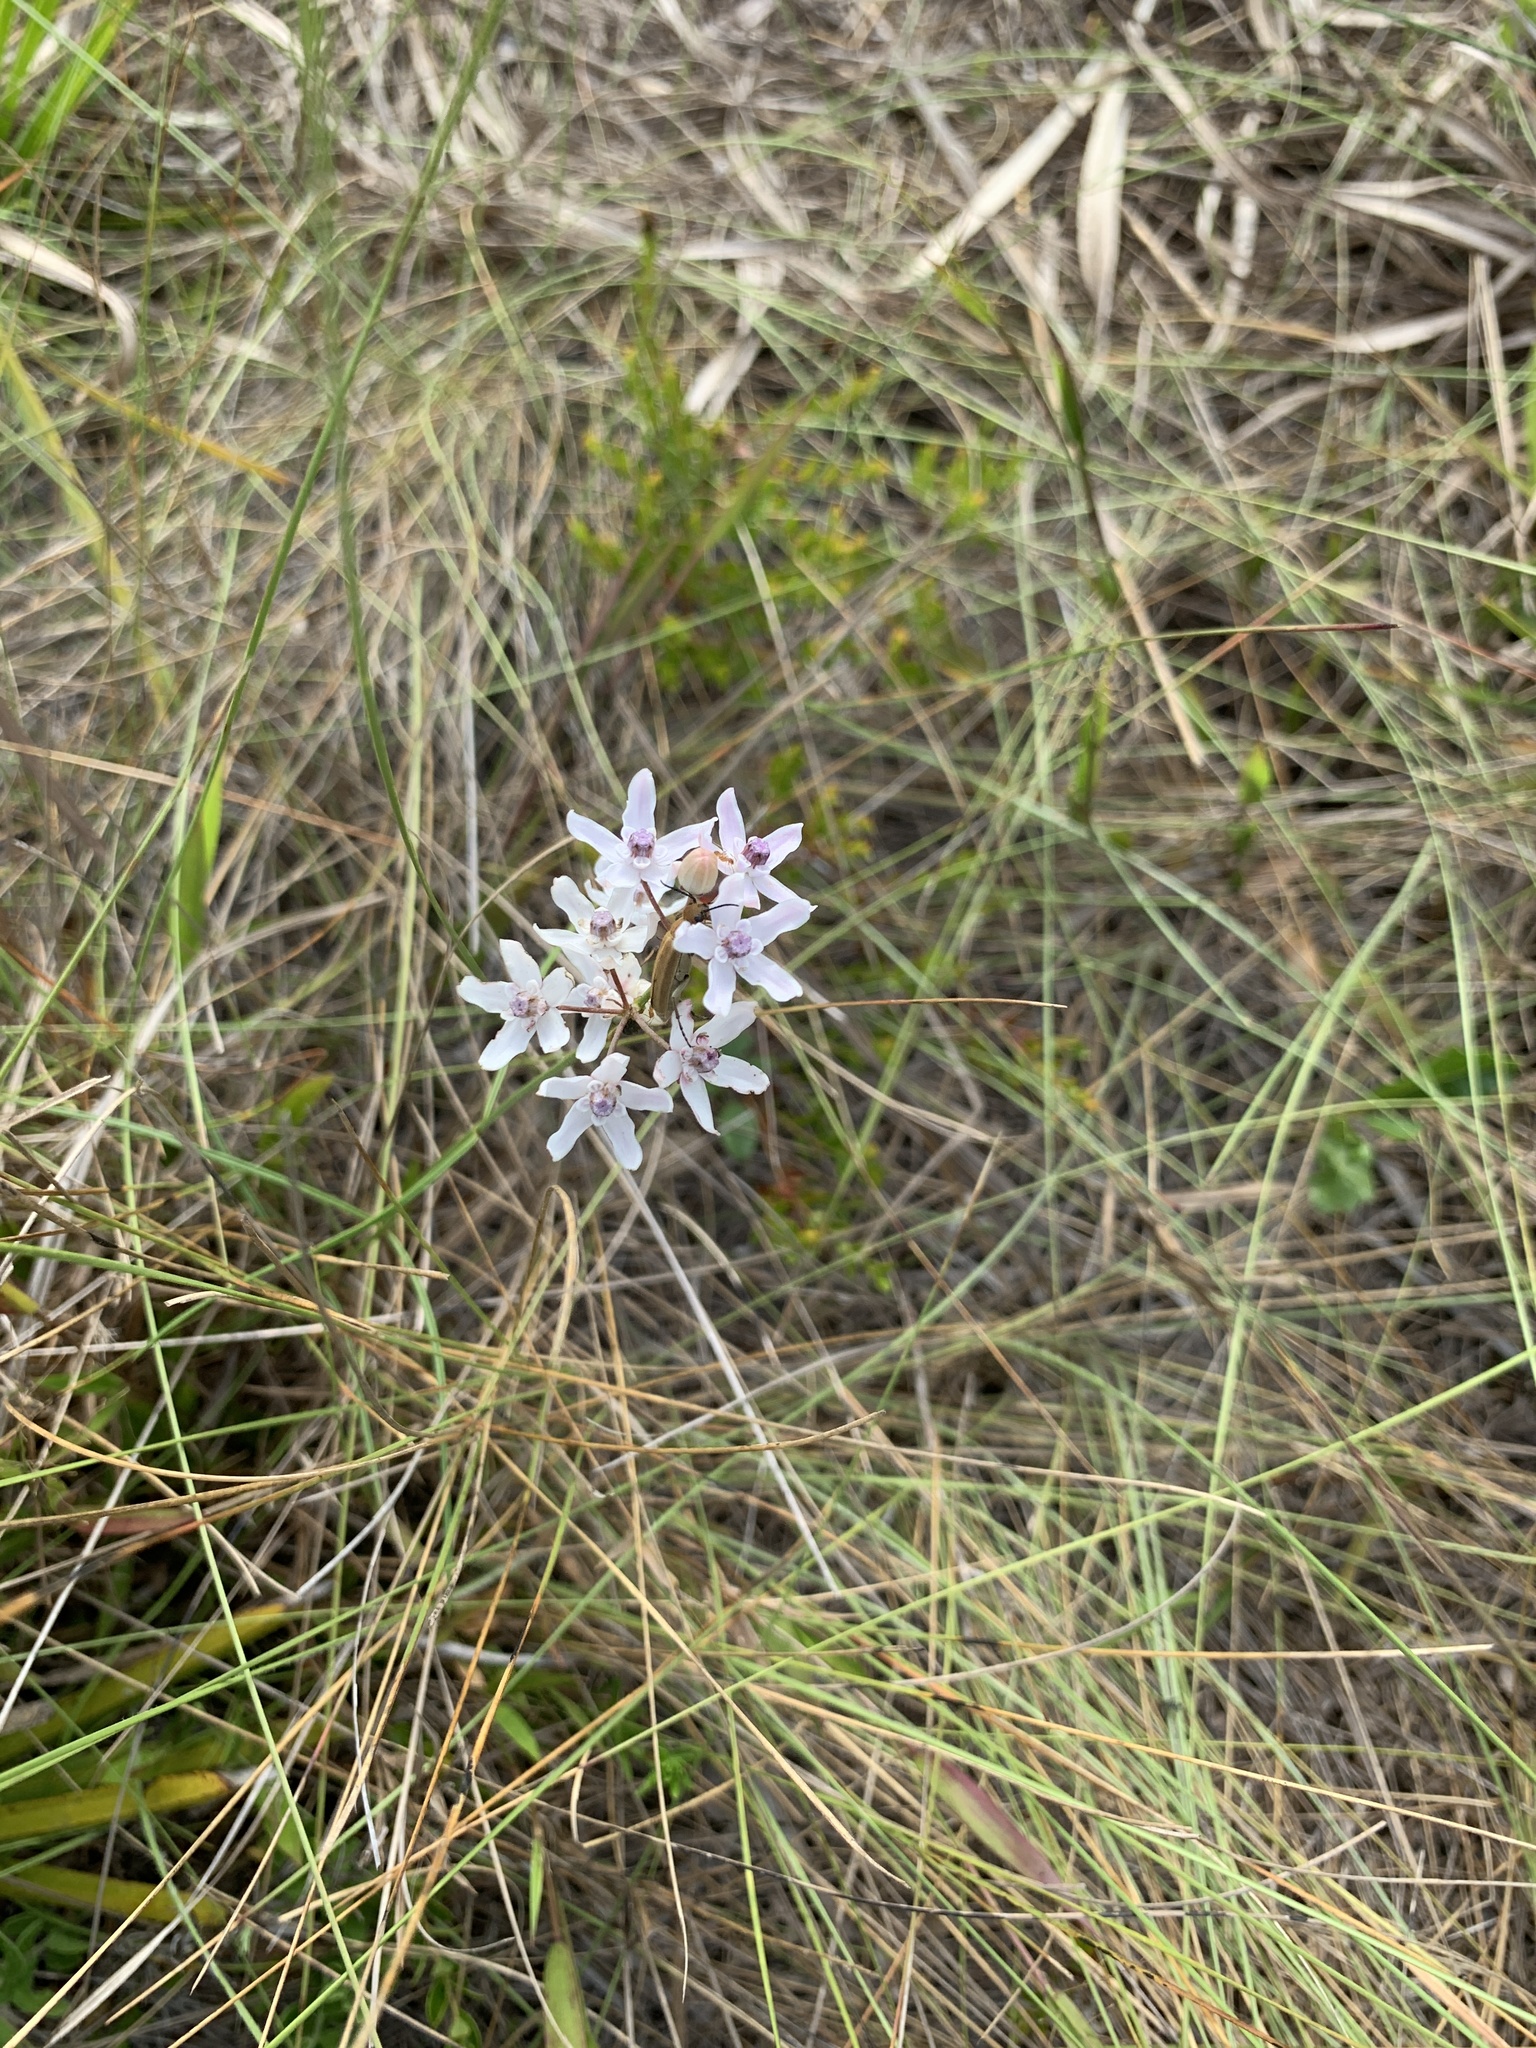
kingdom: Plantae
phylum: Tracheophyta
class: Magnoliopsida
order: Gentianales
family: Apocynaceae
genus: Asclepias
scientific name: Asclepias feayi
